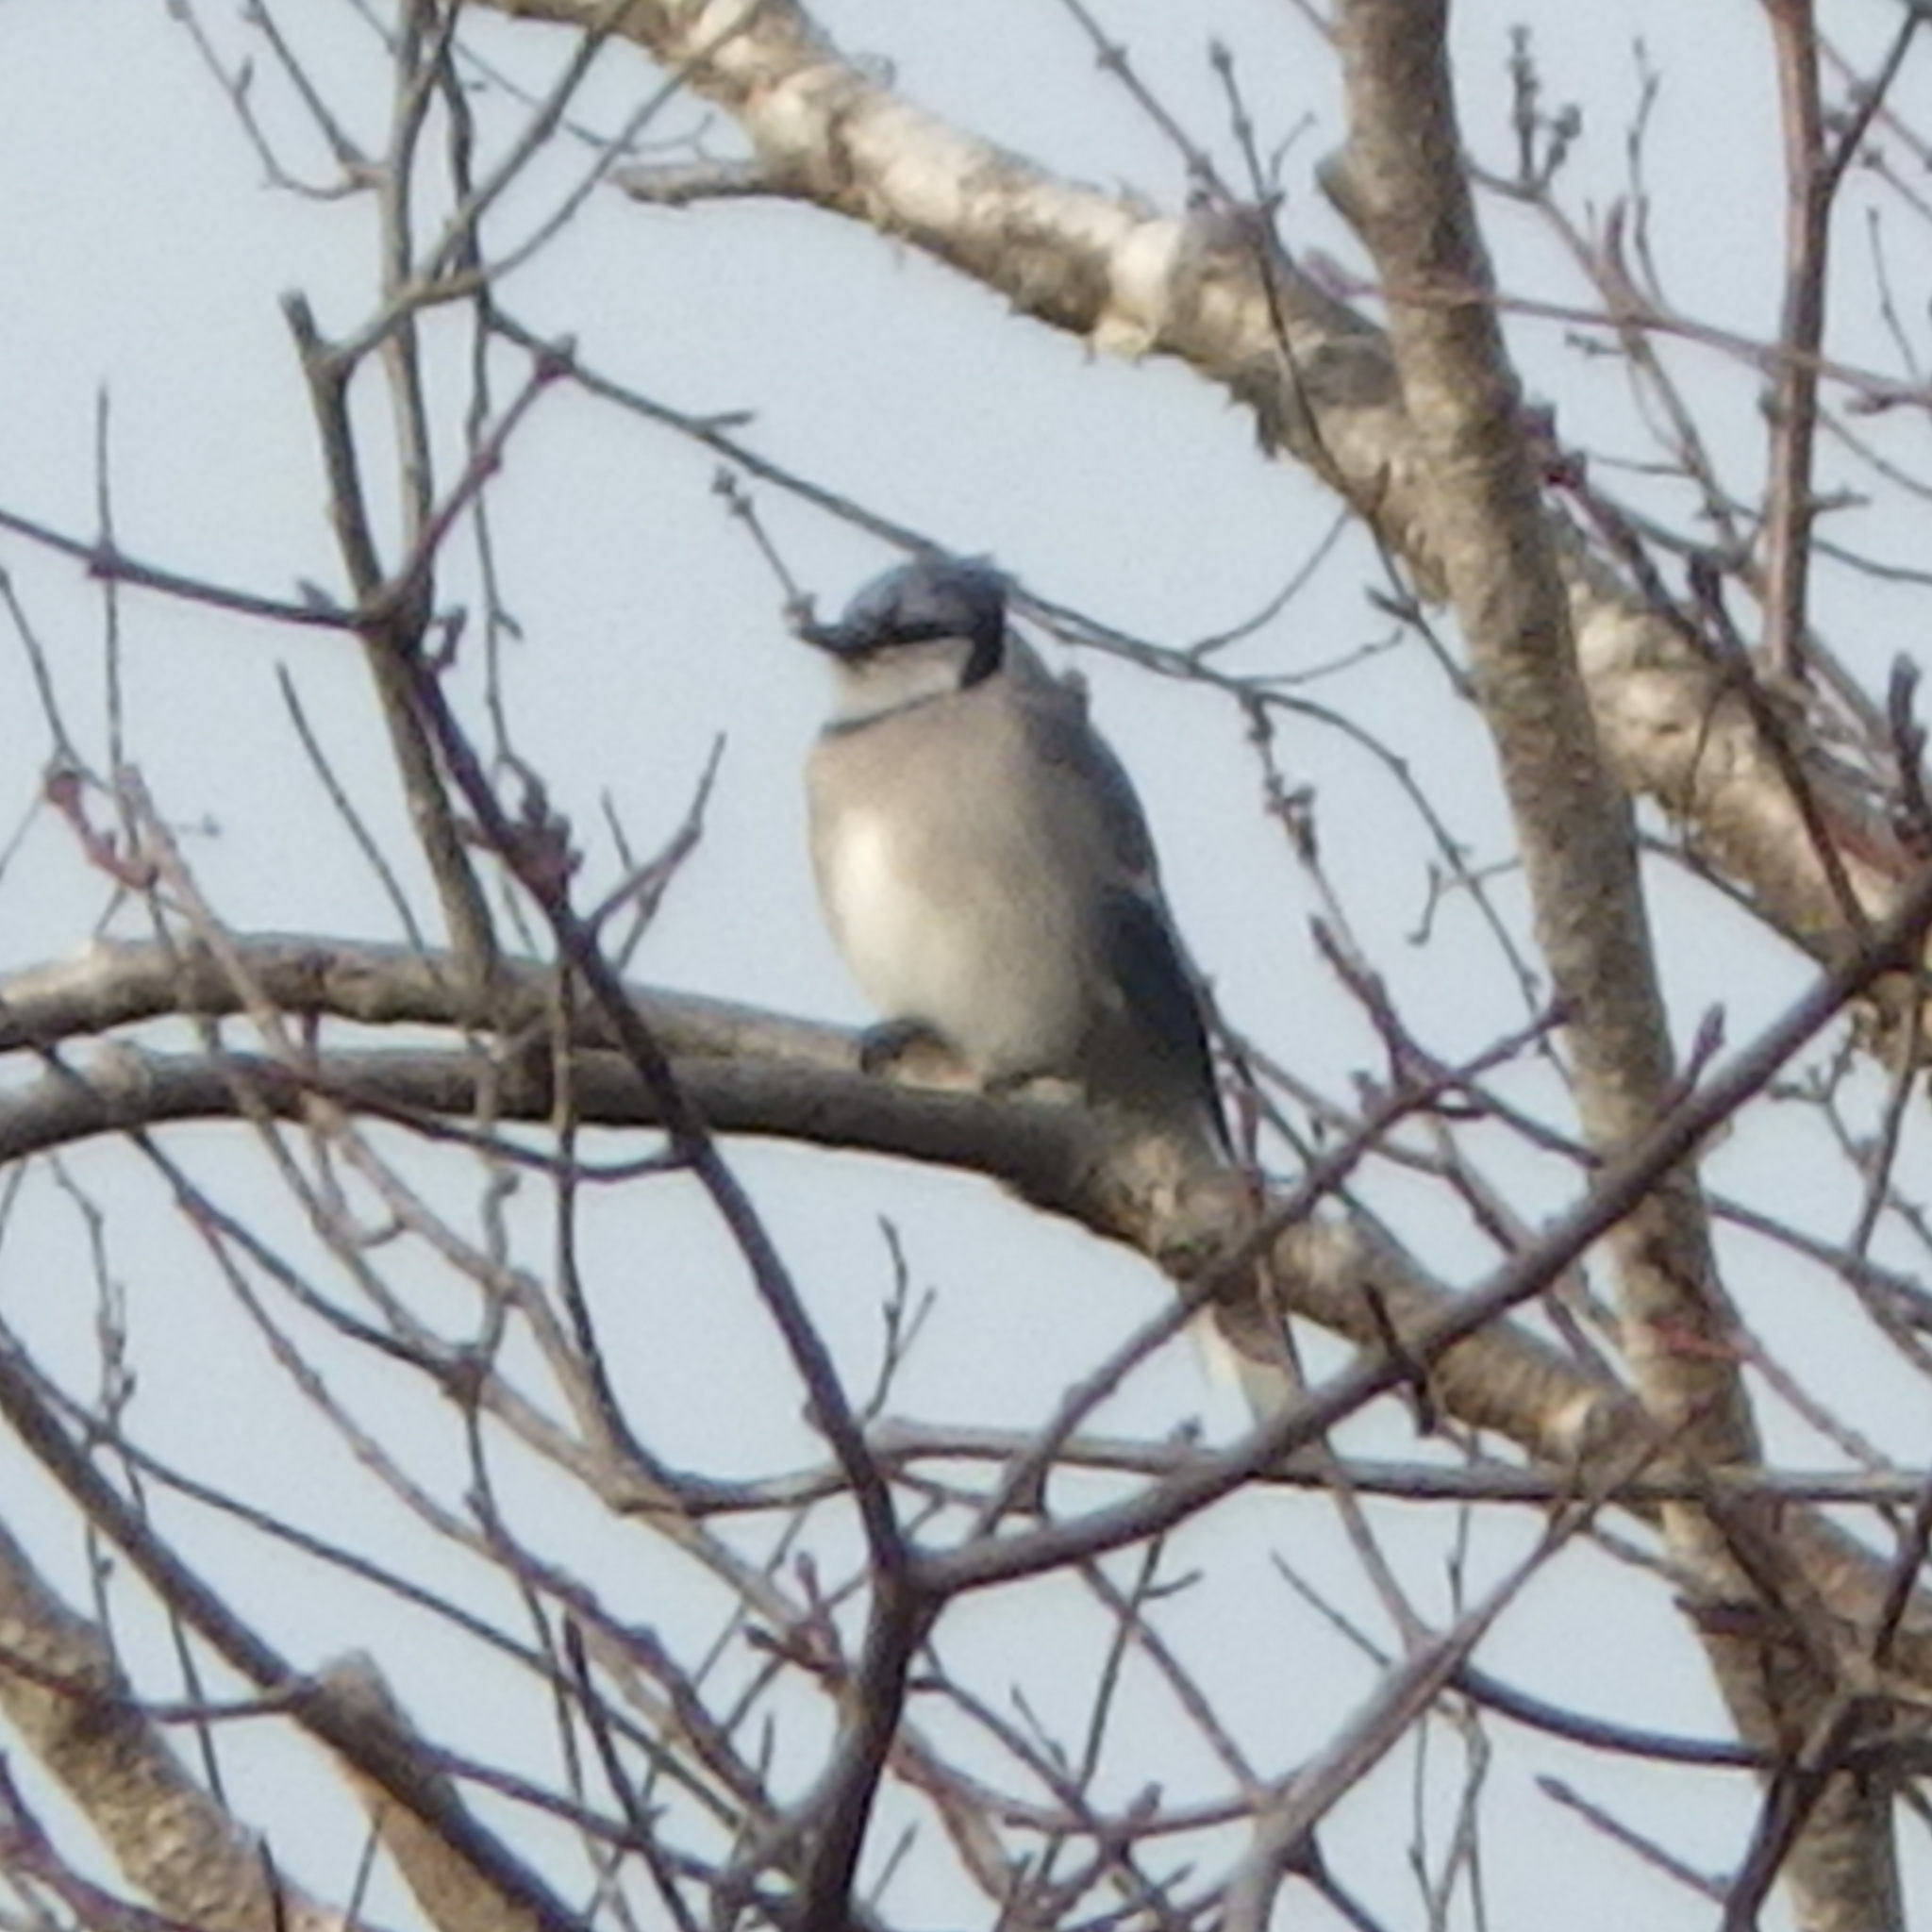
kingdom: Animalia
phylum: Chordata
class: Aves
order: Passeriformes
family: Corvidae
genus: Cyanocitta
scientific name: Cyanocitta cristata
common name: Blue jay
